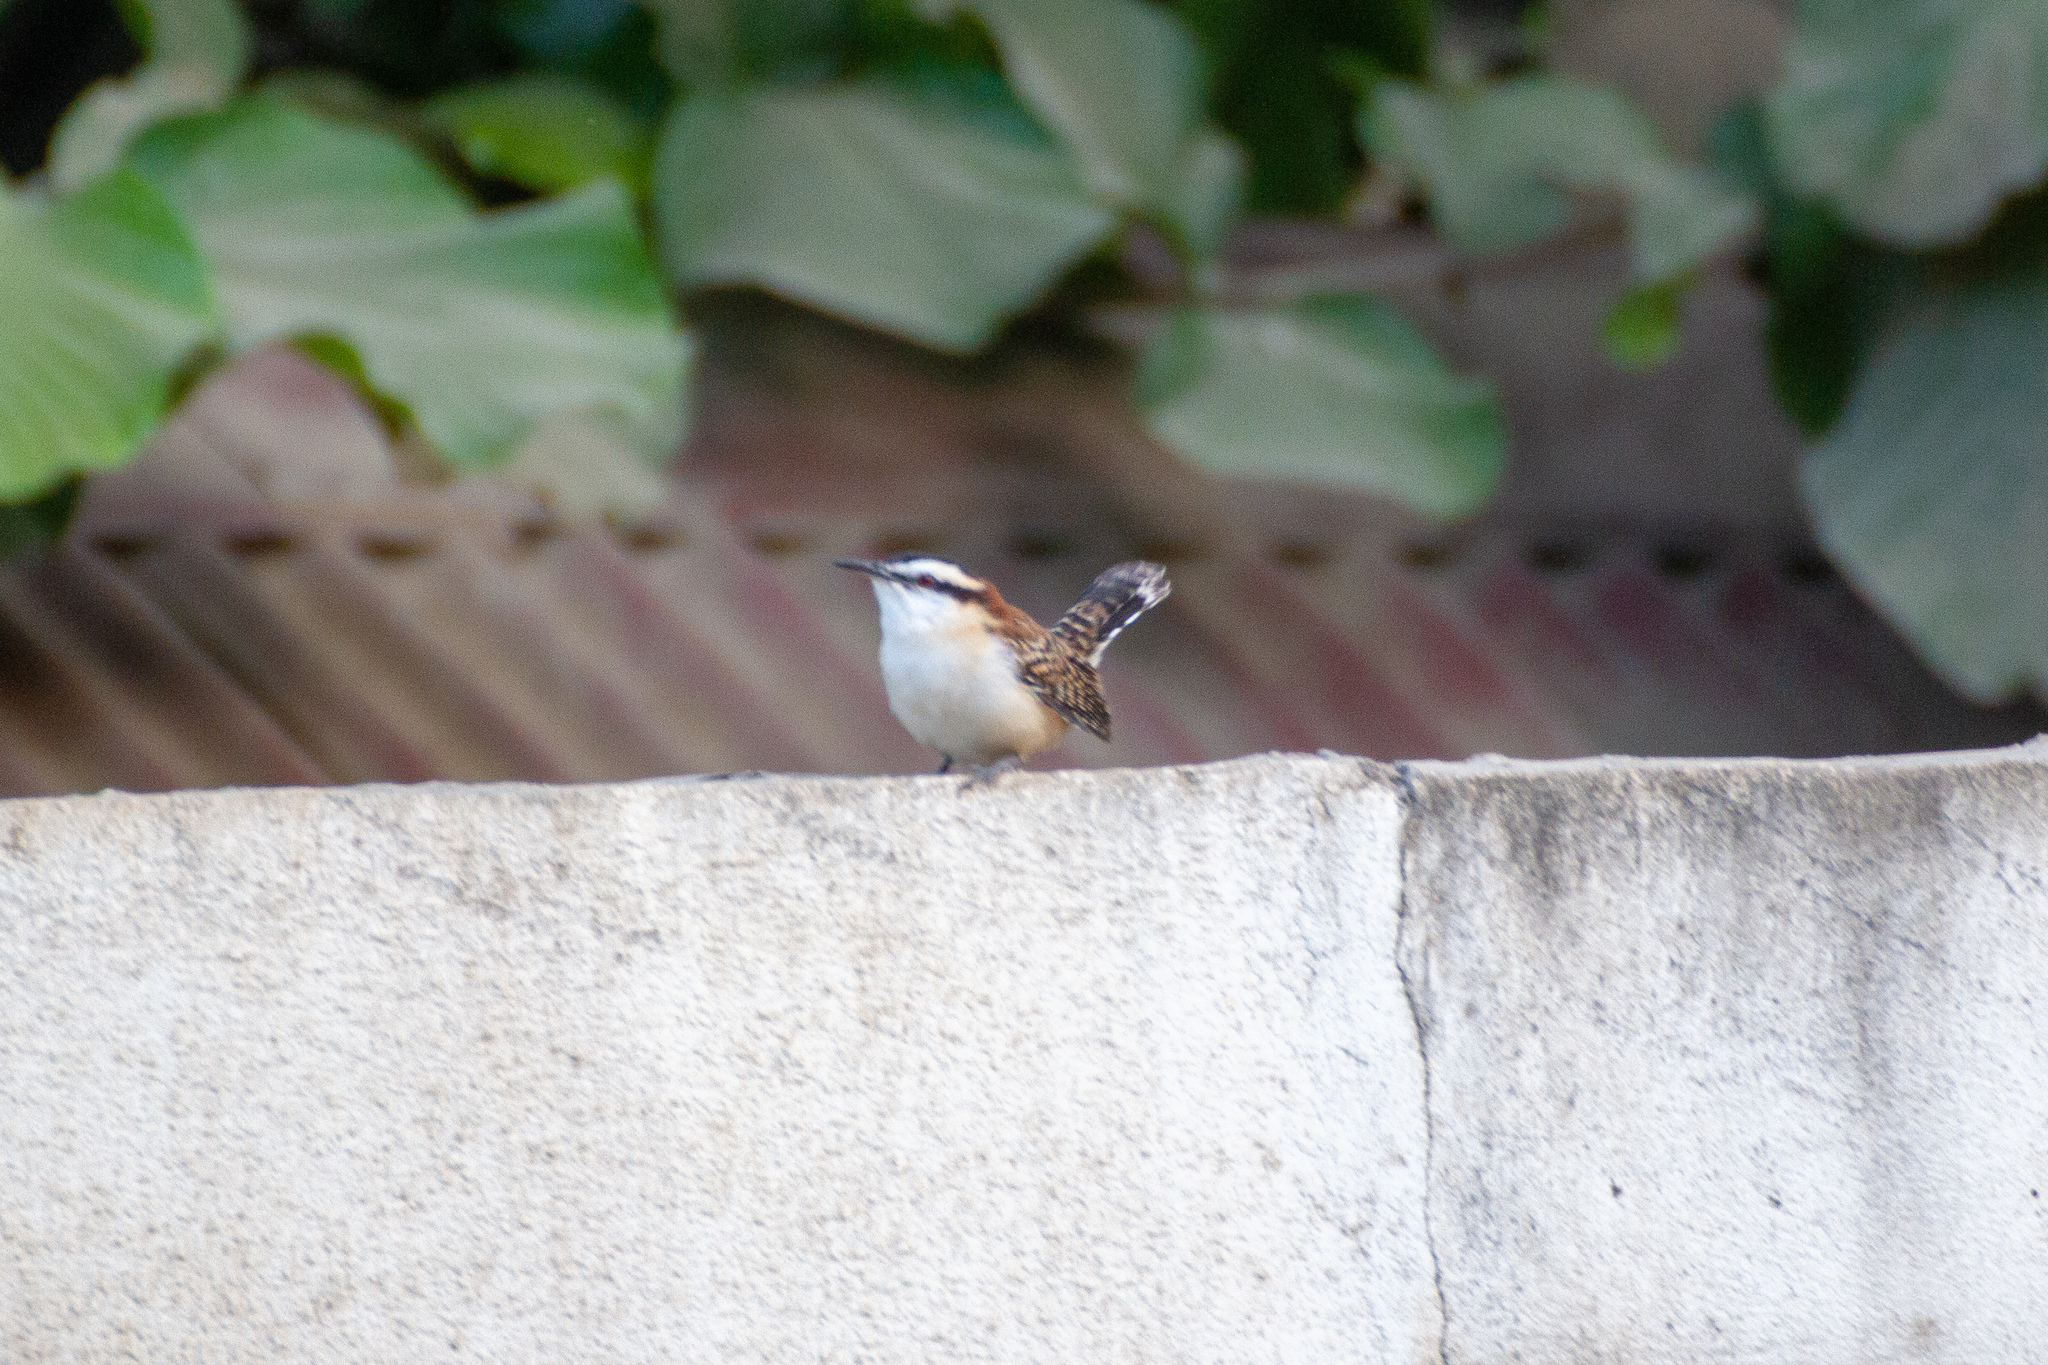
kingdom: Animalia
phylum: Chordata
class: Aves
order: Passeriformes
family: Troglodytidae
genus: Campylorhynchus
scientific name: Campylorhynchus rufinucha
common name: Rufous-naped wren
